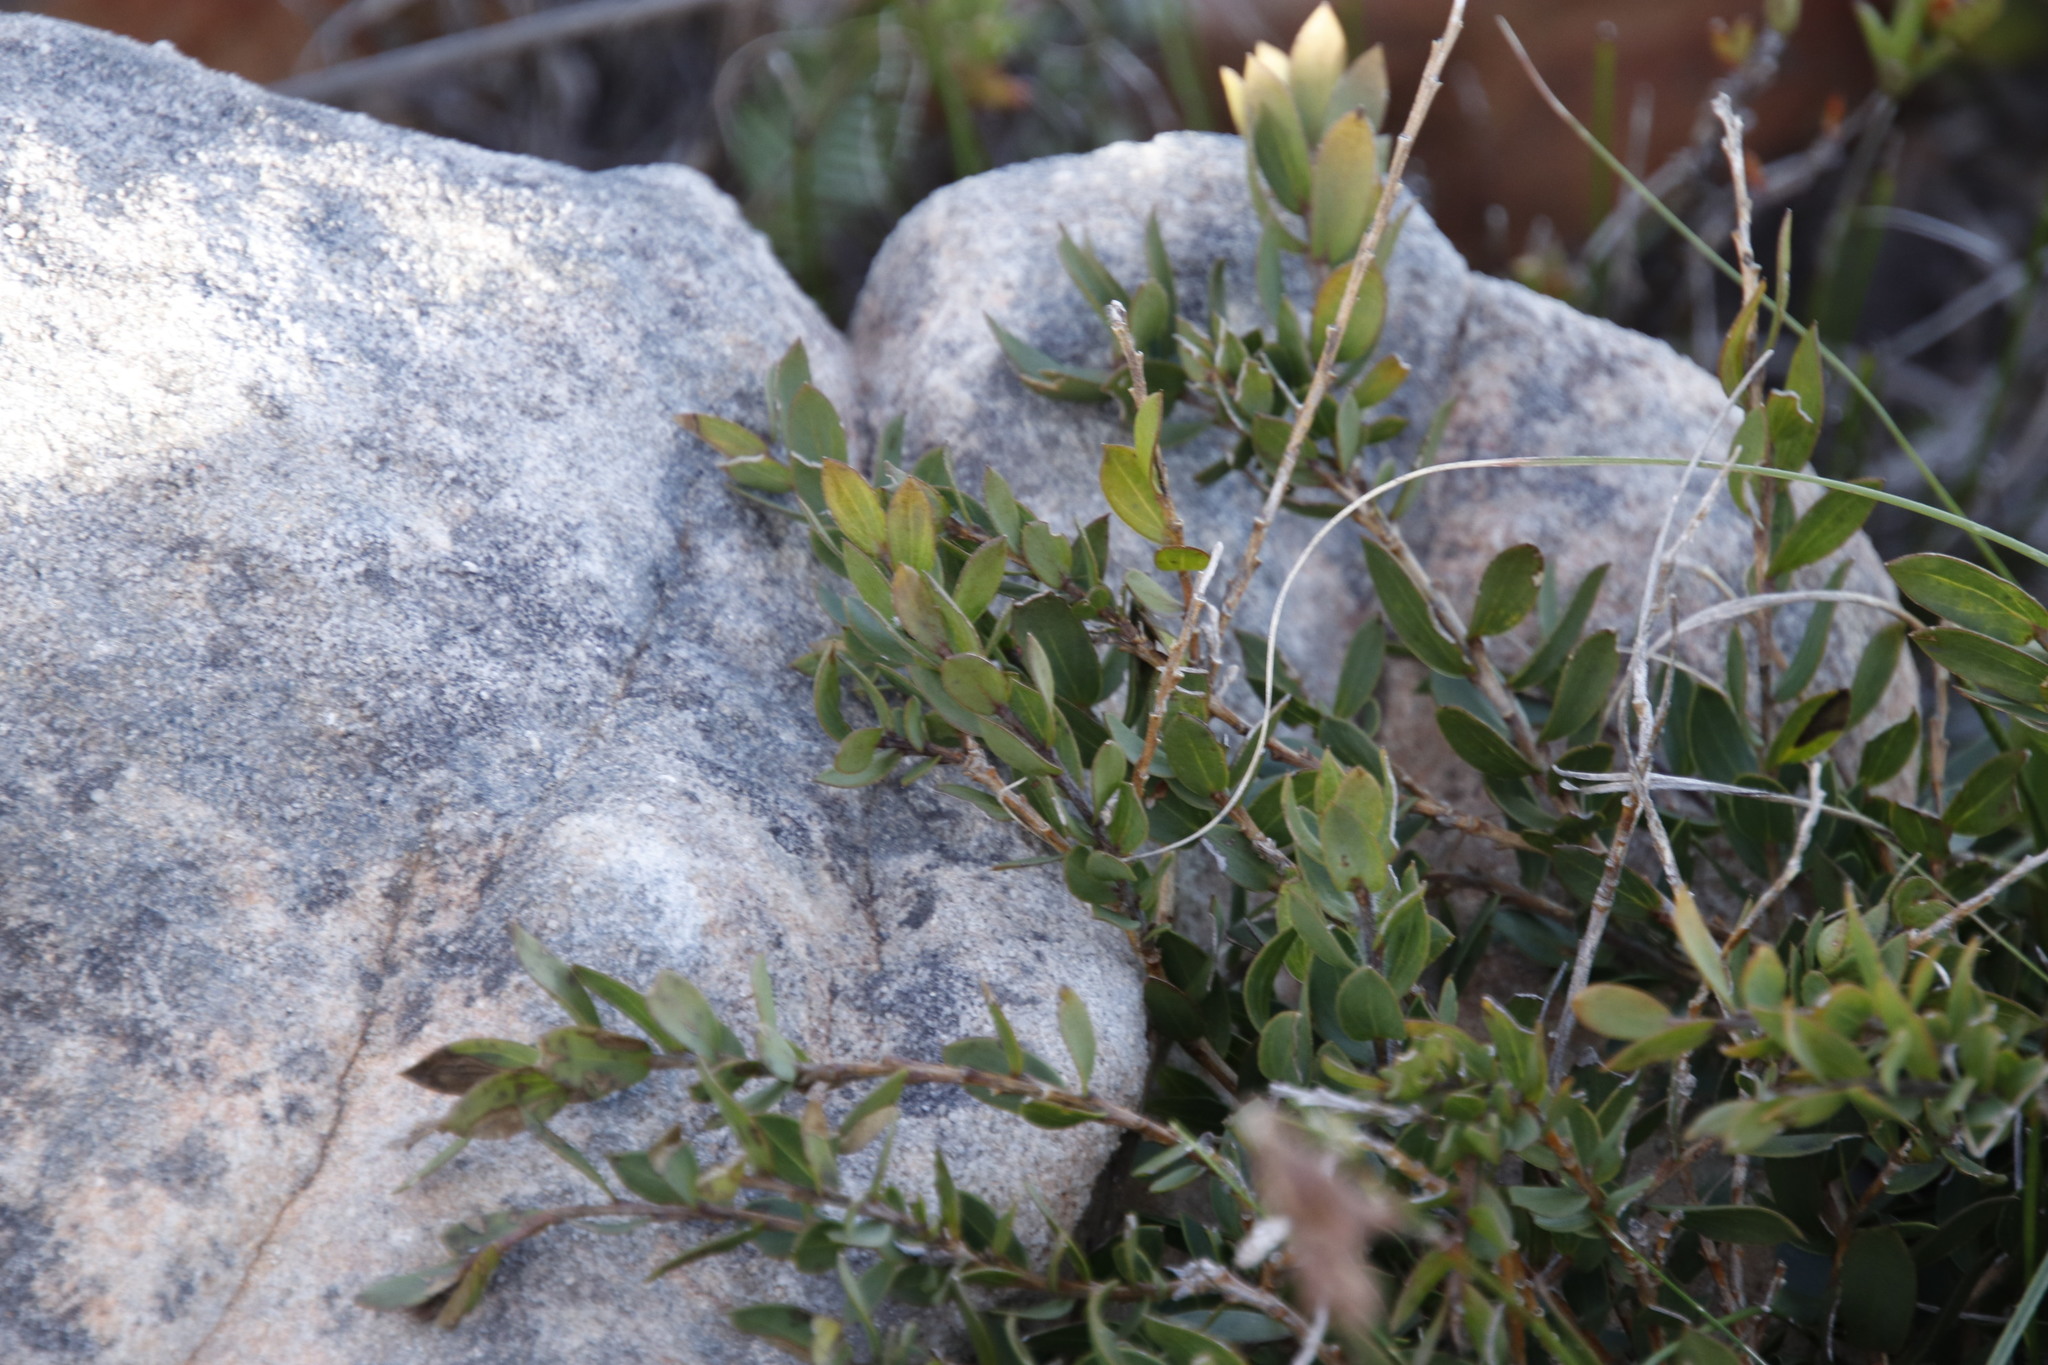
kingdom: Plantae
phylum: Tracheophyta
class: Magnoliopsida
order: Fabales
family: Fabaceae
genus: Liparia
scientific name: Liparia parva
